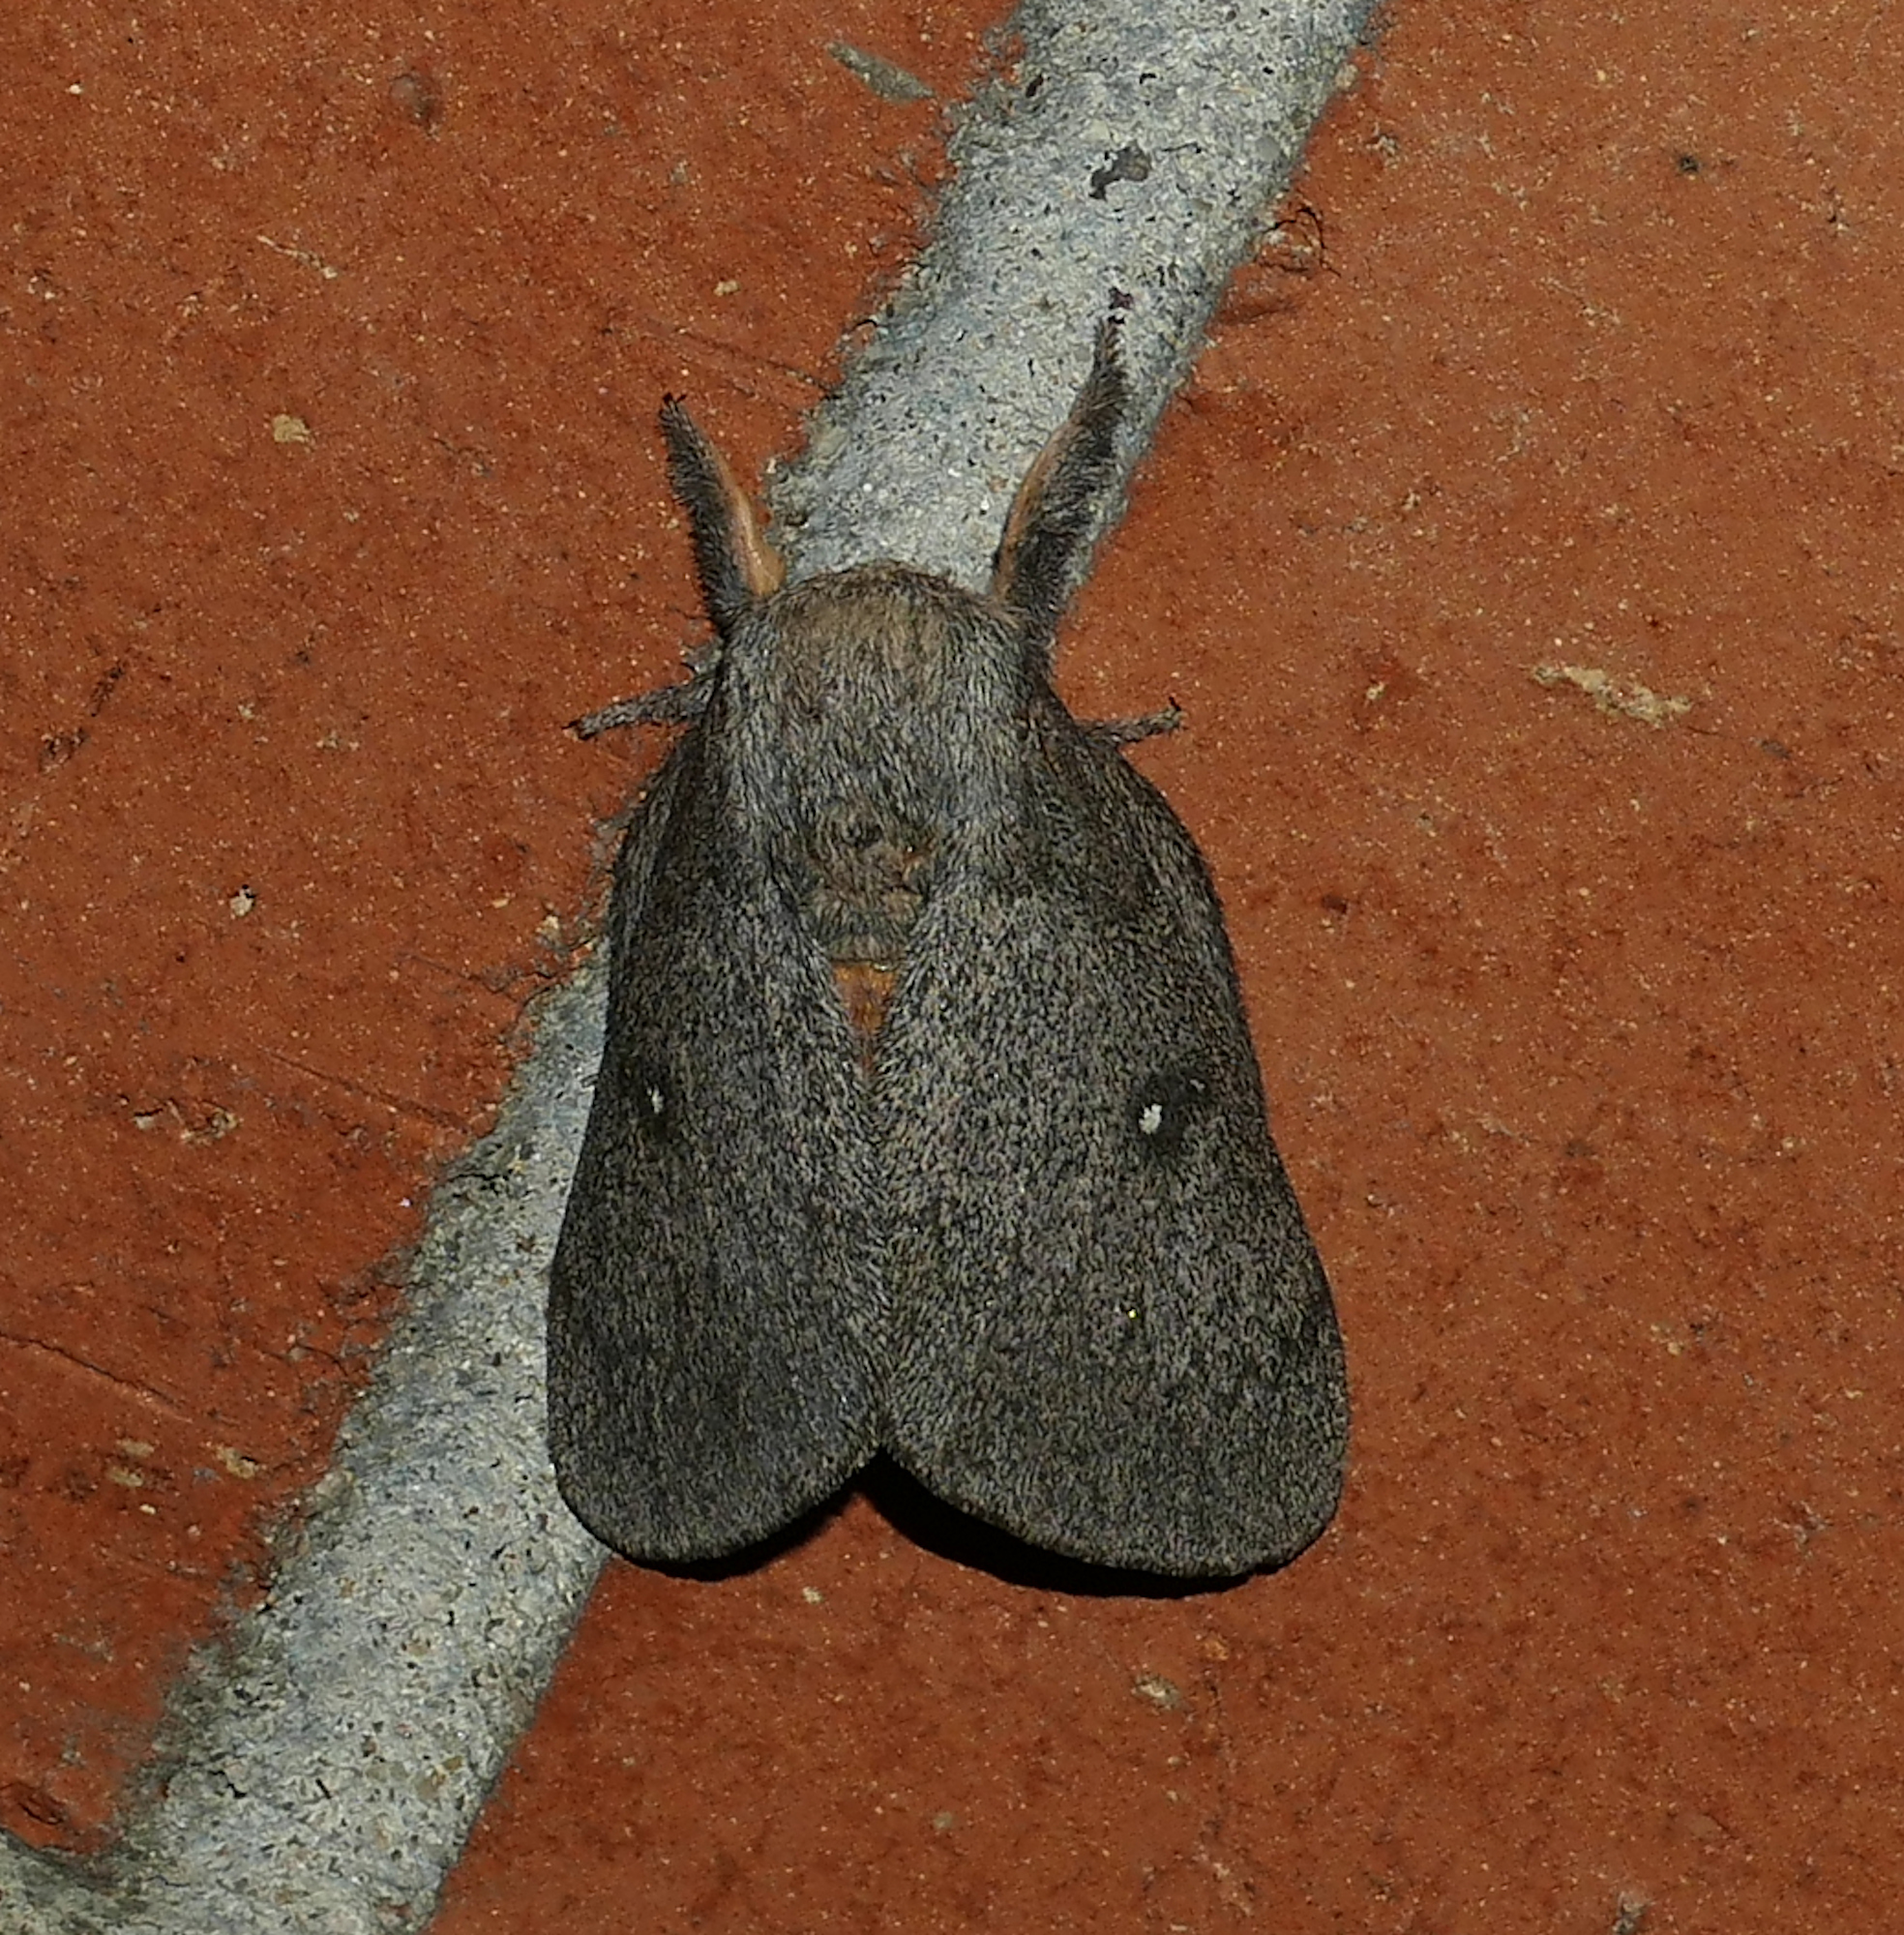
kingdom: Animalia
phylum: Arthropoda
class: Insecta
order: Lepidoptera
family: Saturniidae
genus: Syssphinx
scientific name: Syssphinx hubbardi
